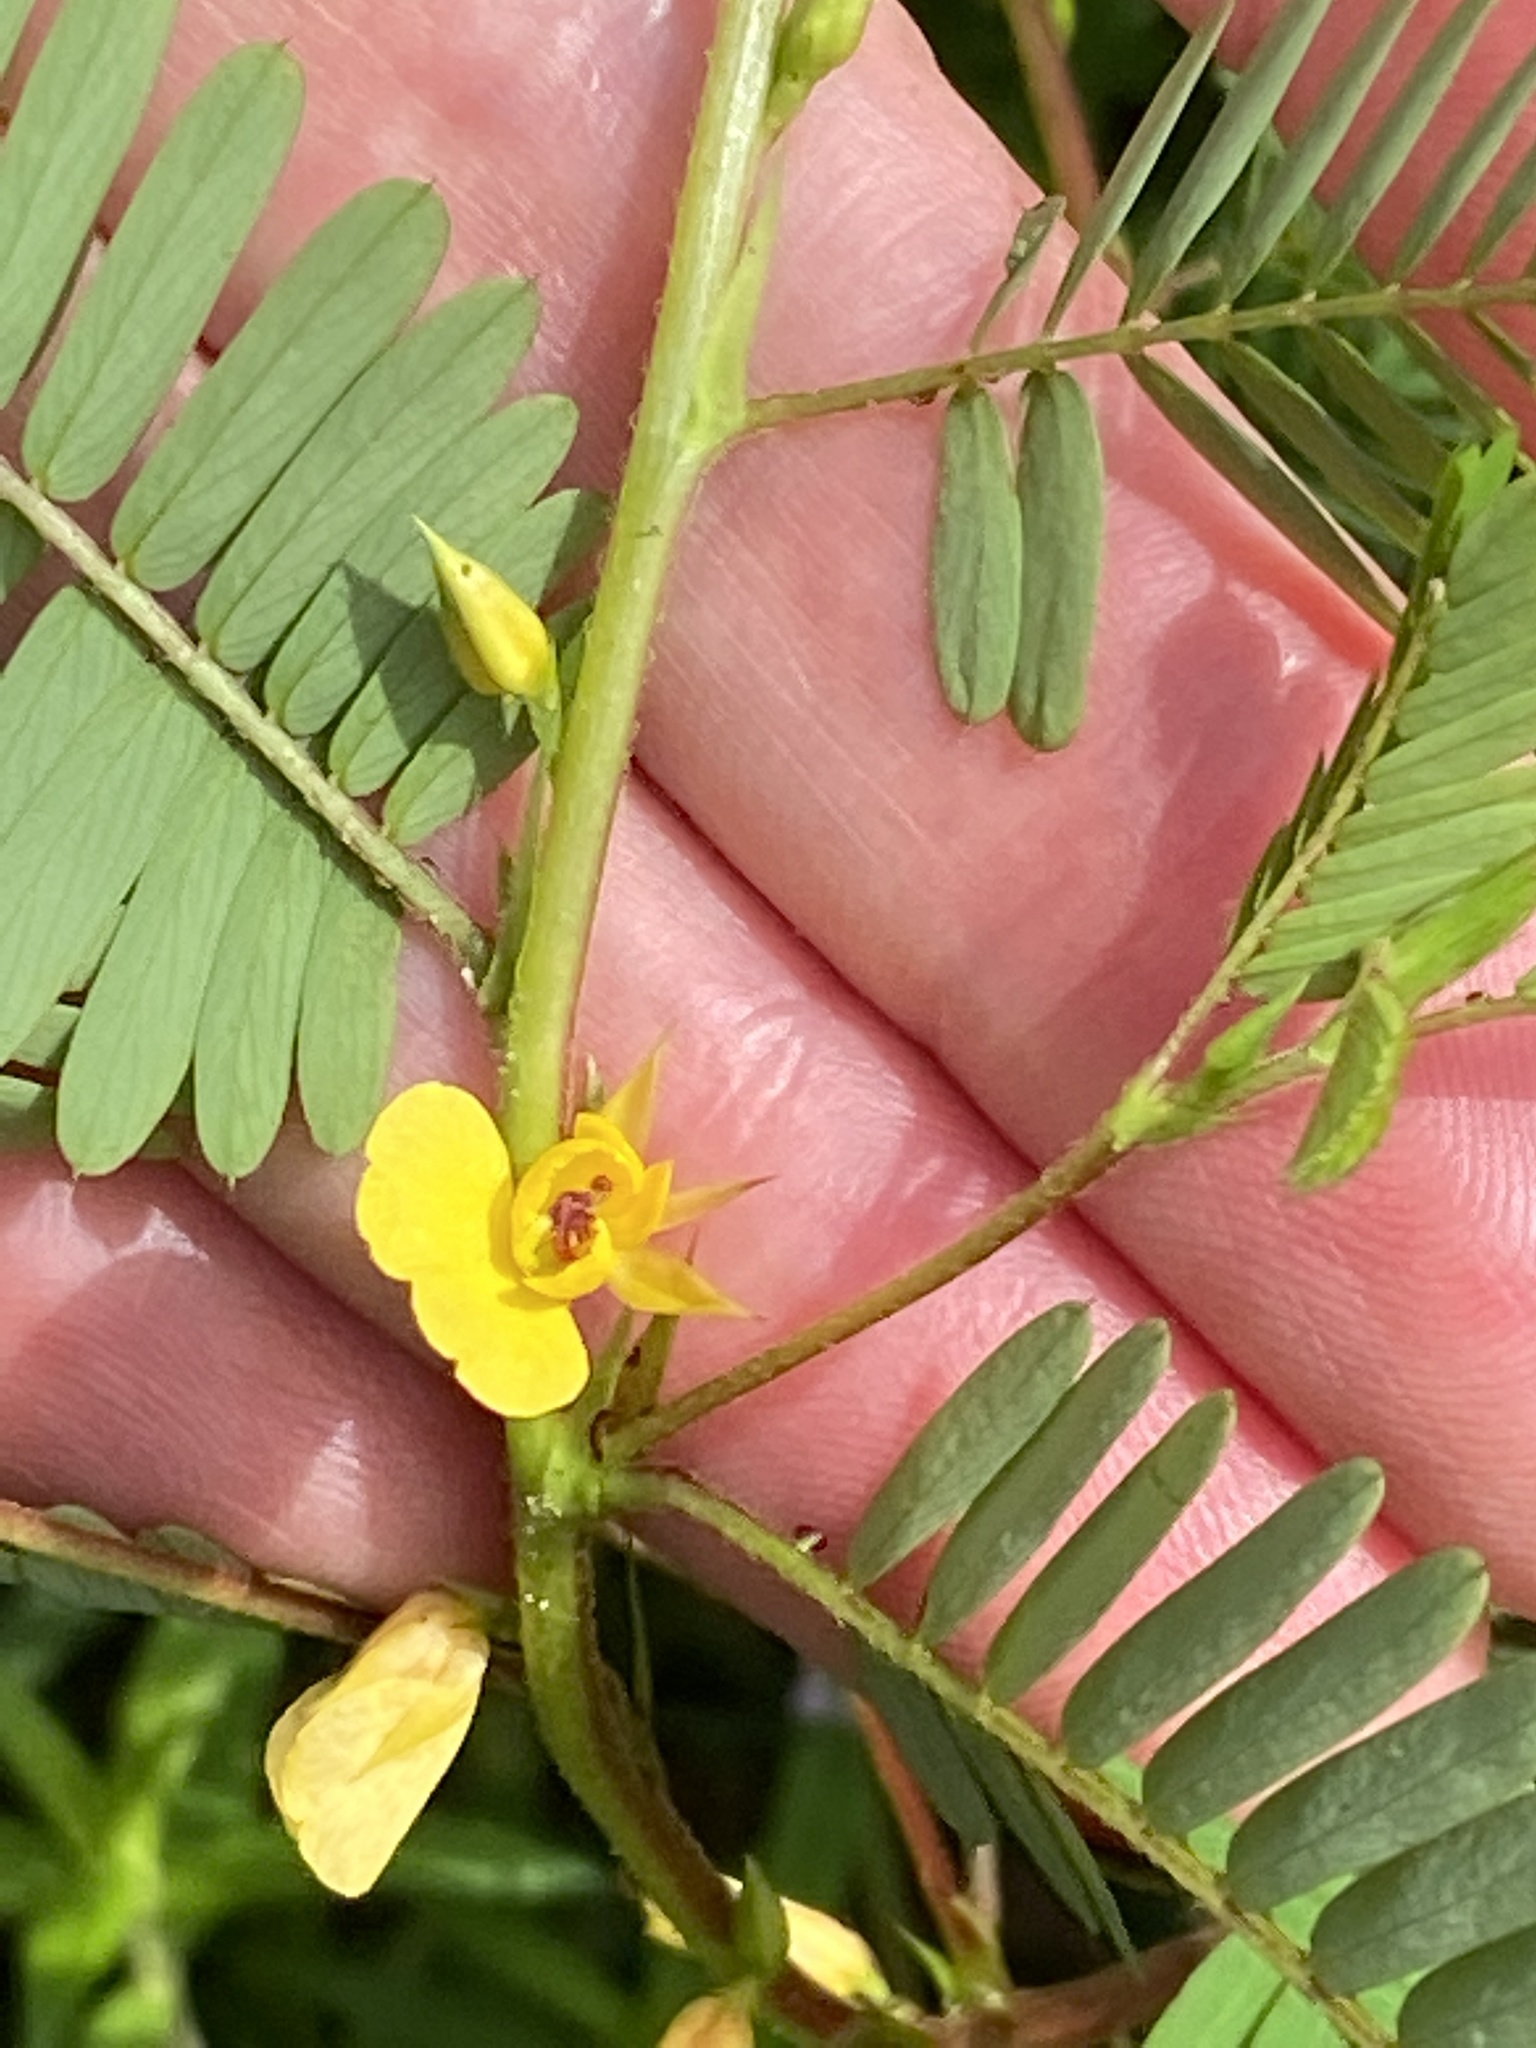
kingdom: Plantae
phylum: Tracheophyta
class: Magnoliopsida
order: Fabales
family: Fabaceae
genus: Chamaecrista
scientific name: Chamaecrista nictitans
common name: Sensitive cassia
